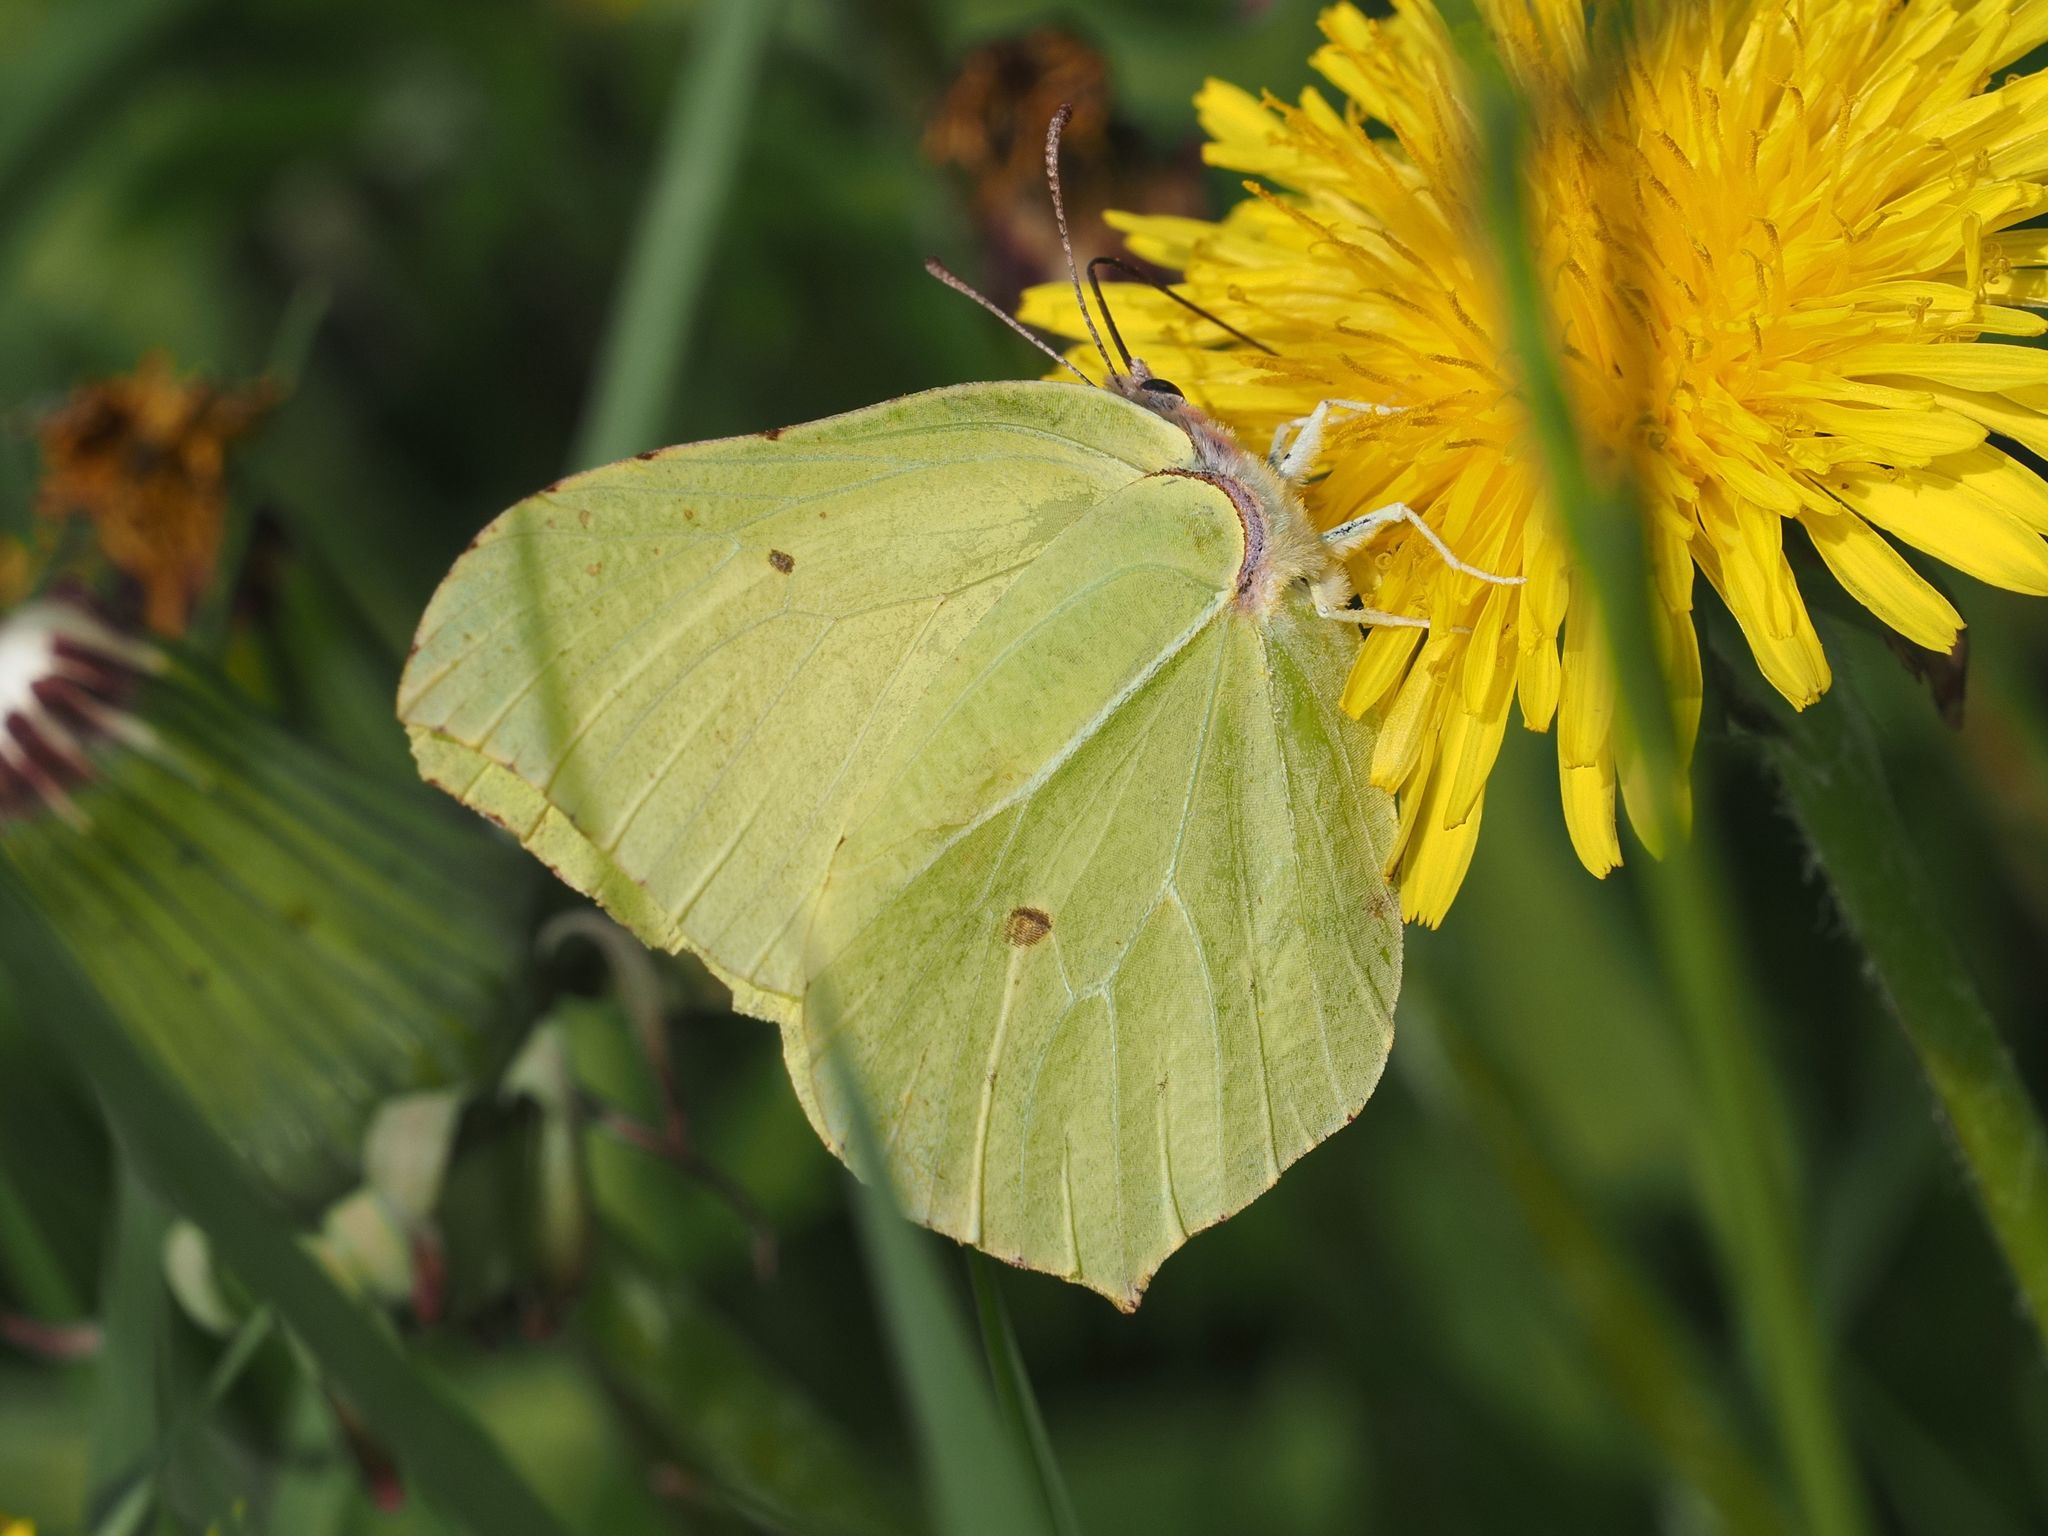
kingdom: Animalia
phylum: Arthropoda
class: Insecta
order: Lepidoptera
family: Pieridae
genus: Gonepteryx
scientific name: Gonepteryx rhamni
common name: Brimstone
